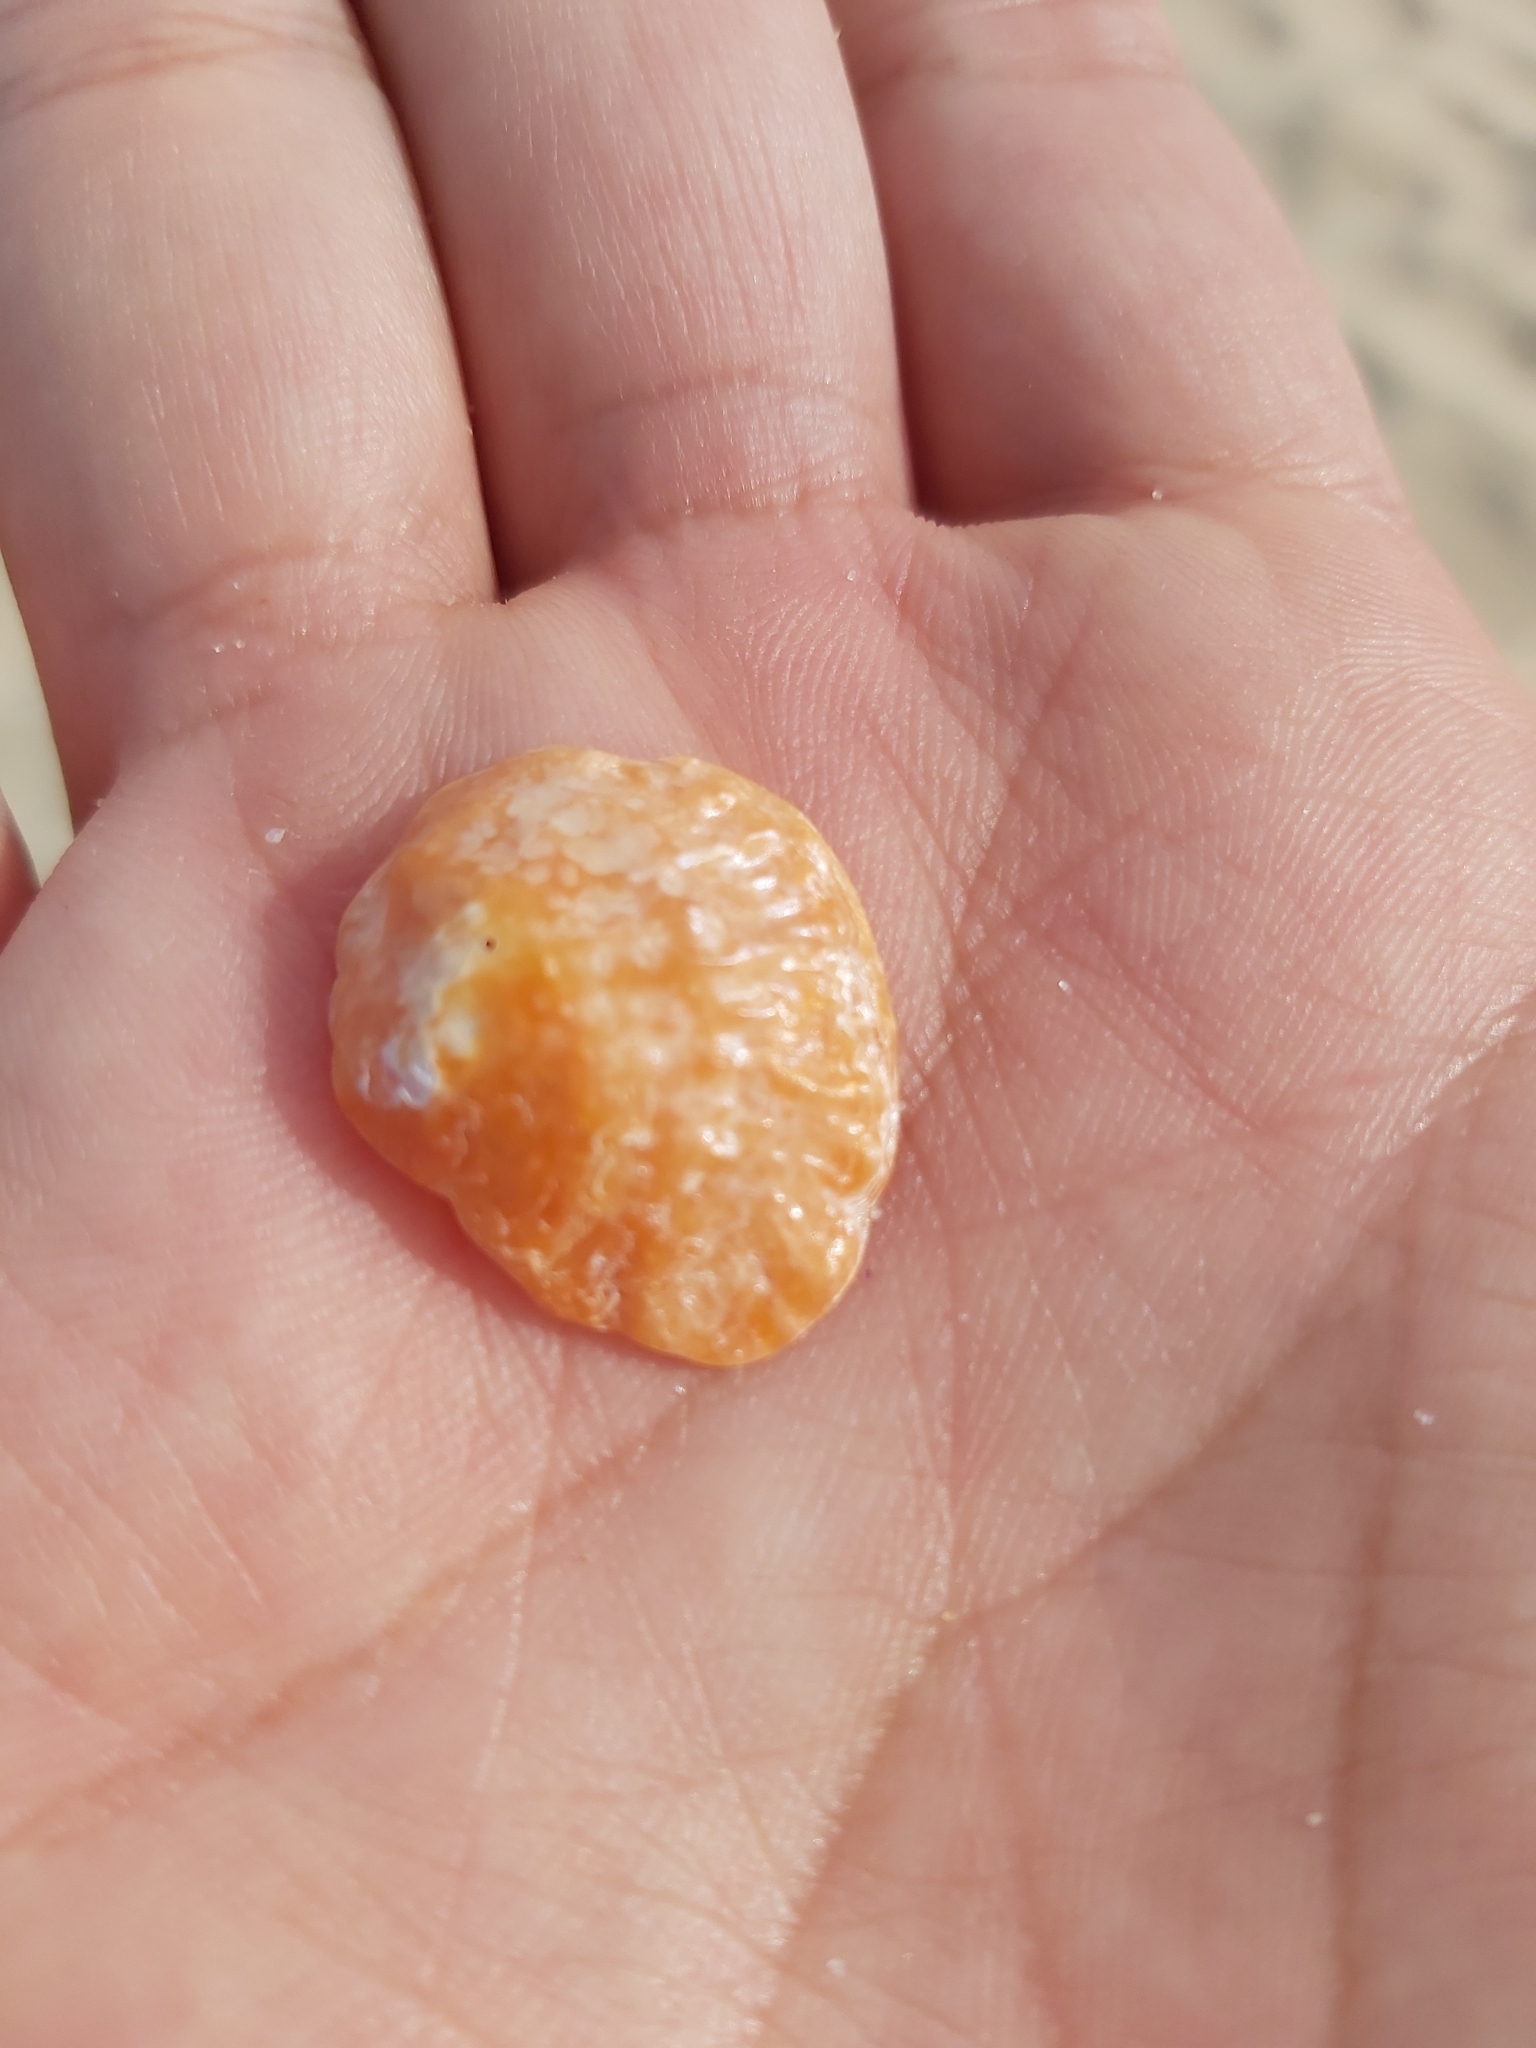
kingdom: Animalia
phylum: Mollusca
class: Bivalvia
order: Pectinida
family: Anomiidae
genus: Anomia
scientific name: Anomia trigonopsis
